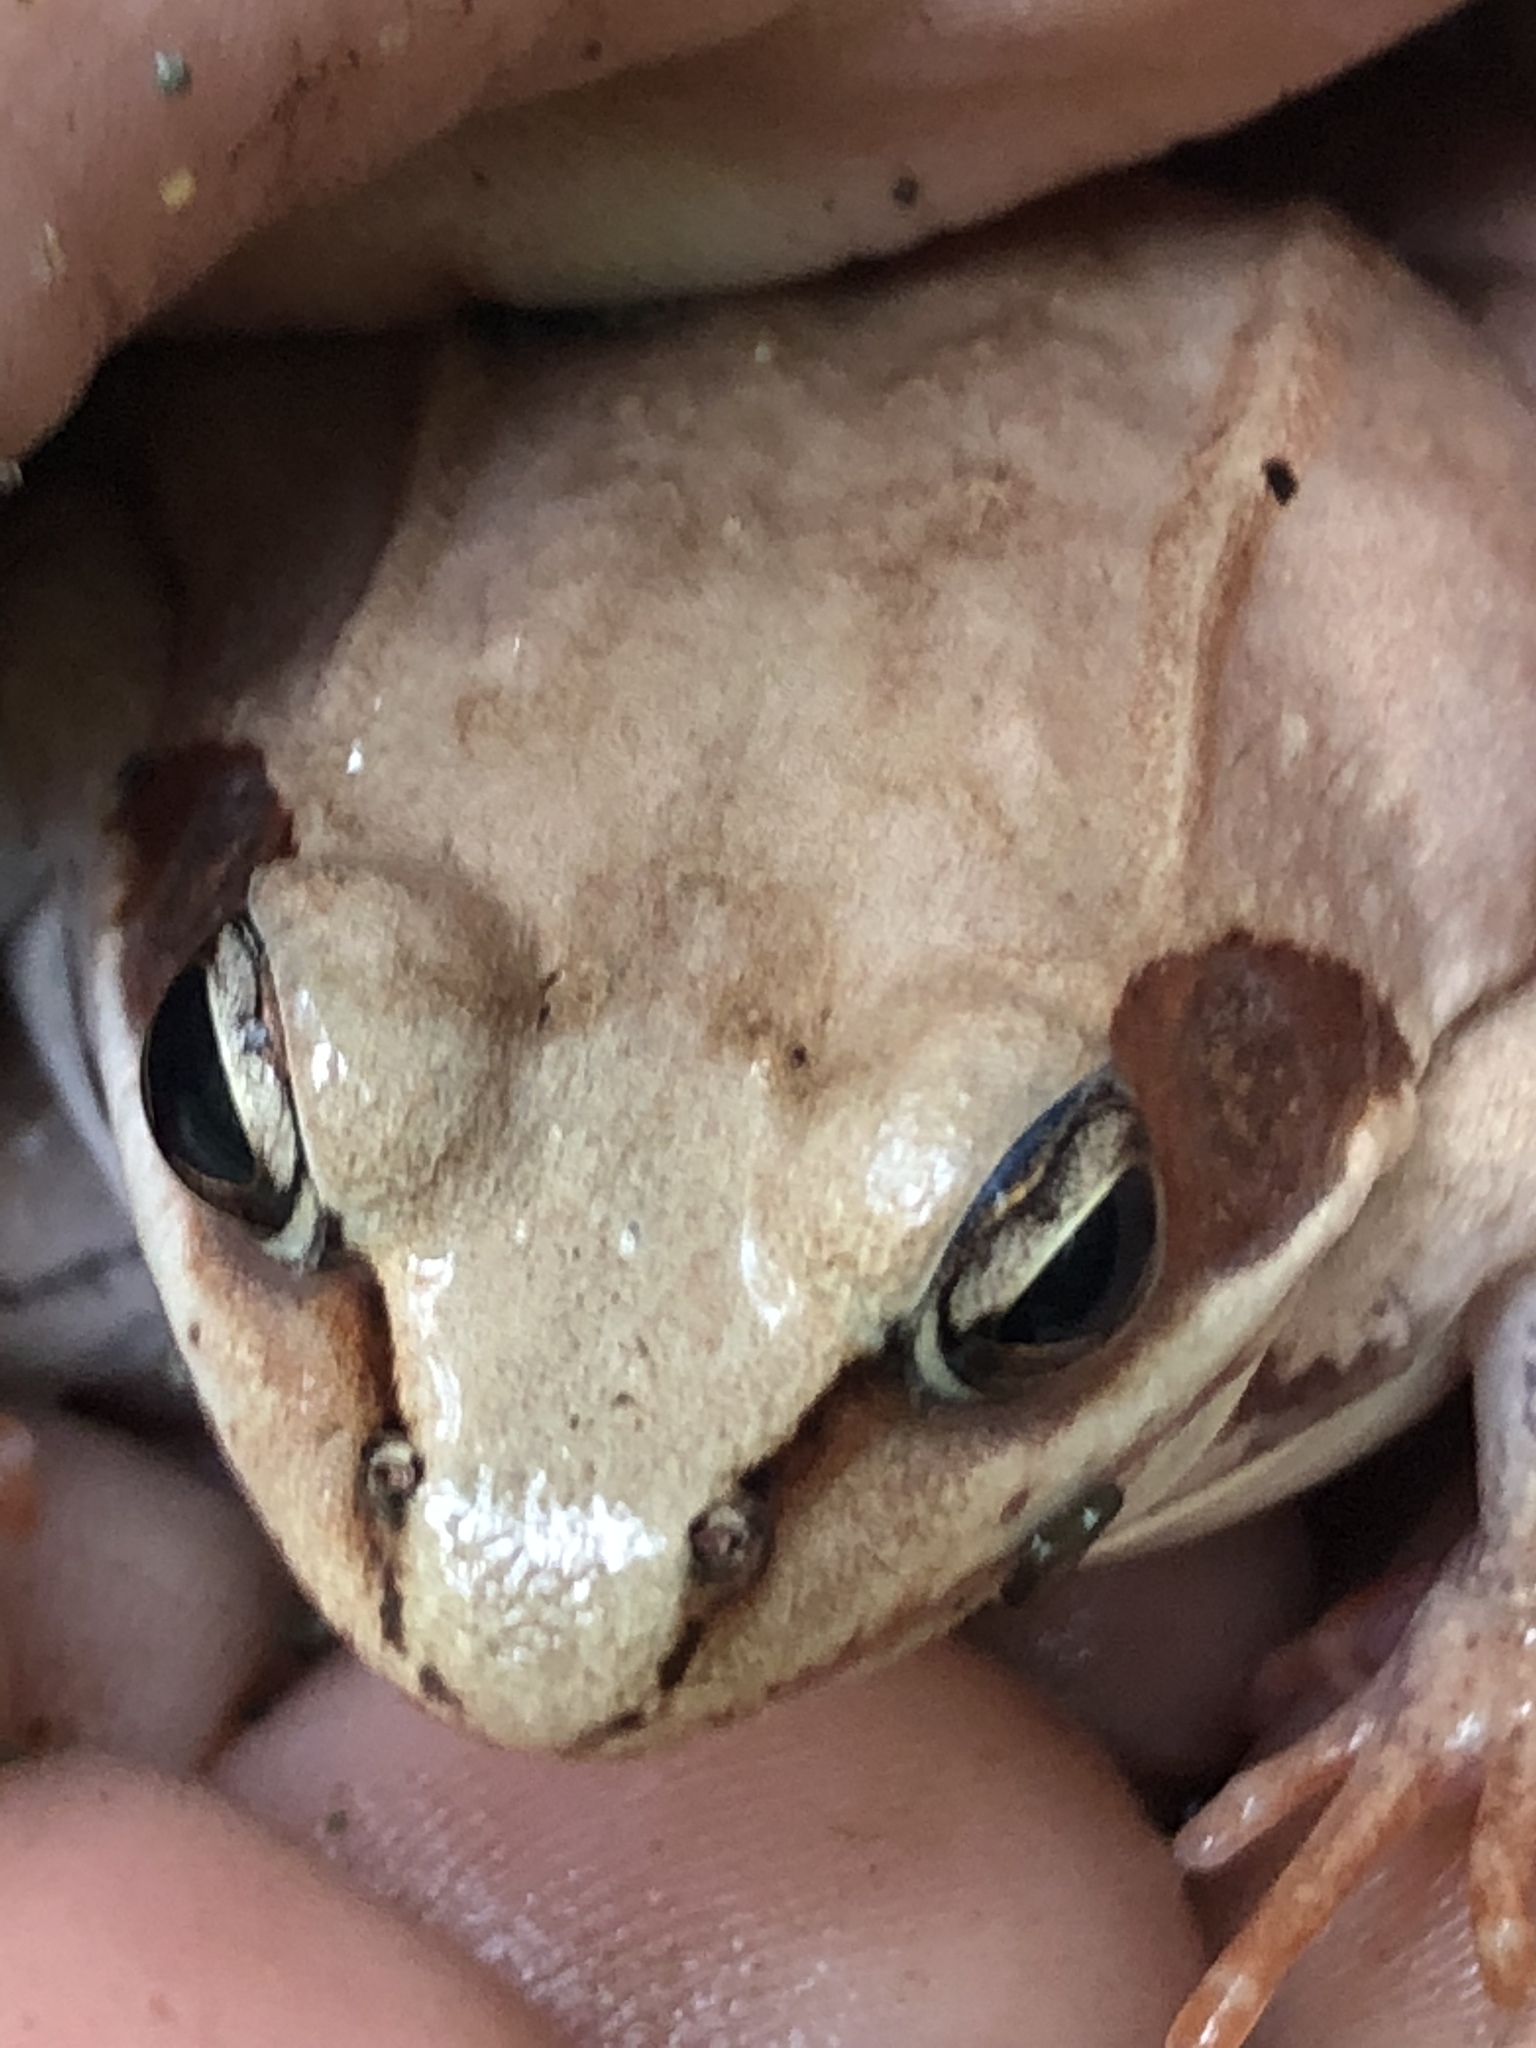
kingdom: Animalia
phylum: Chordata
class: Amphibia
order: Anura
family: Ranidae
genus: Lithobates
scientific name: Lithobates sylvaticus
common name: Wood frog
